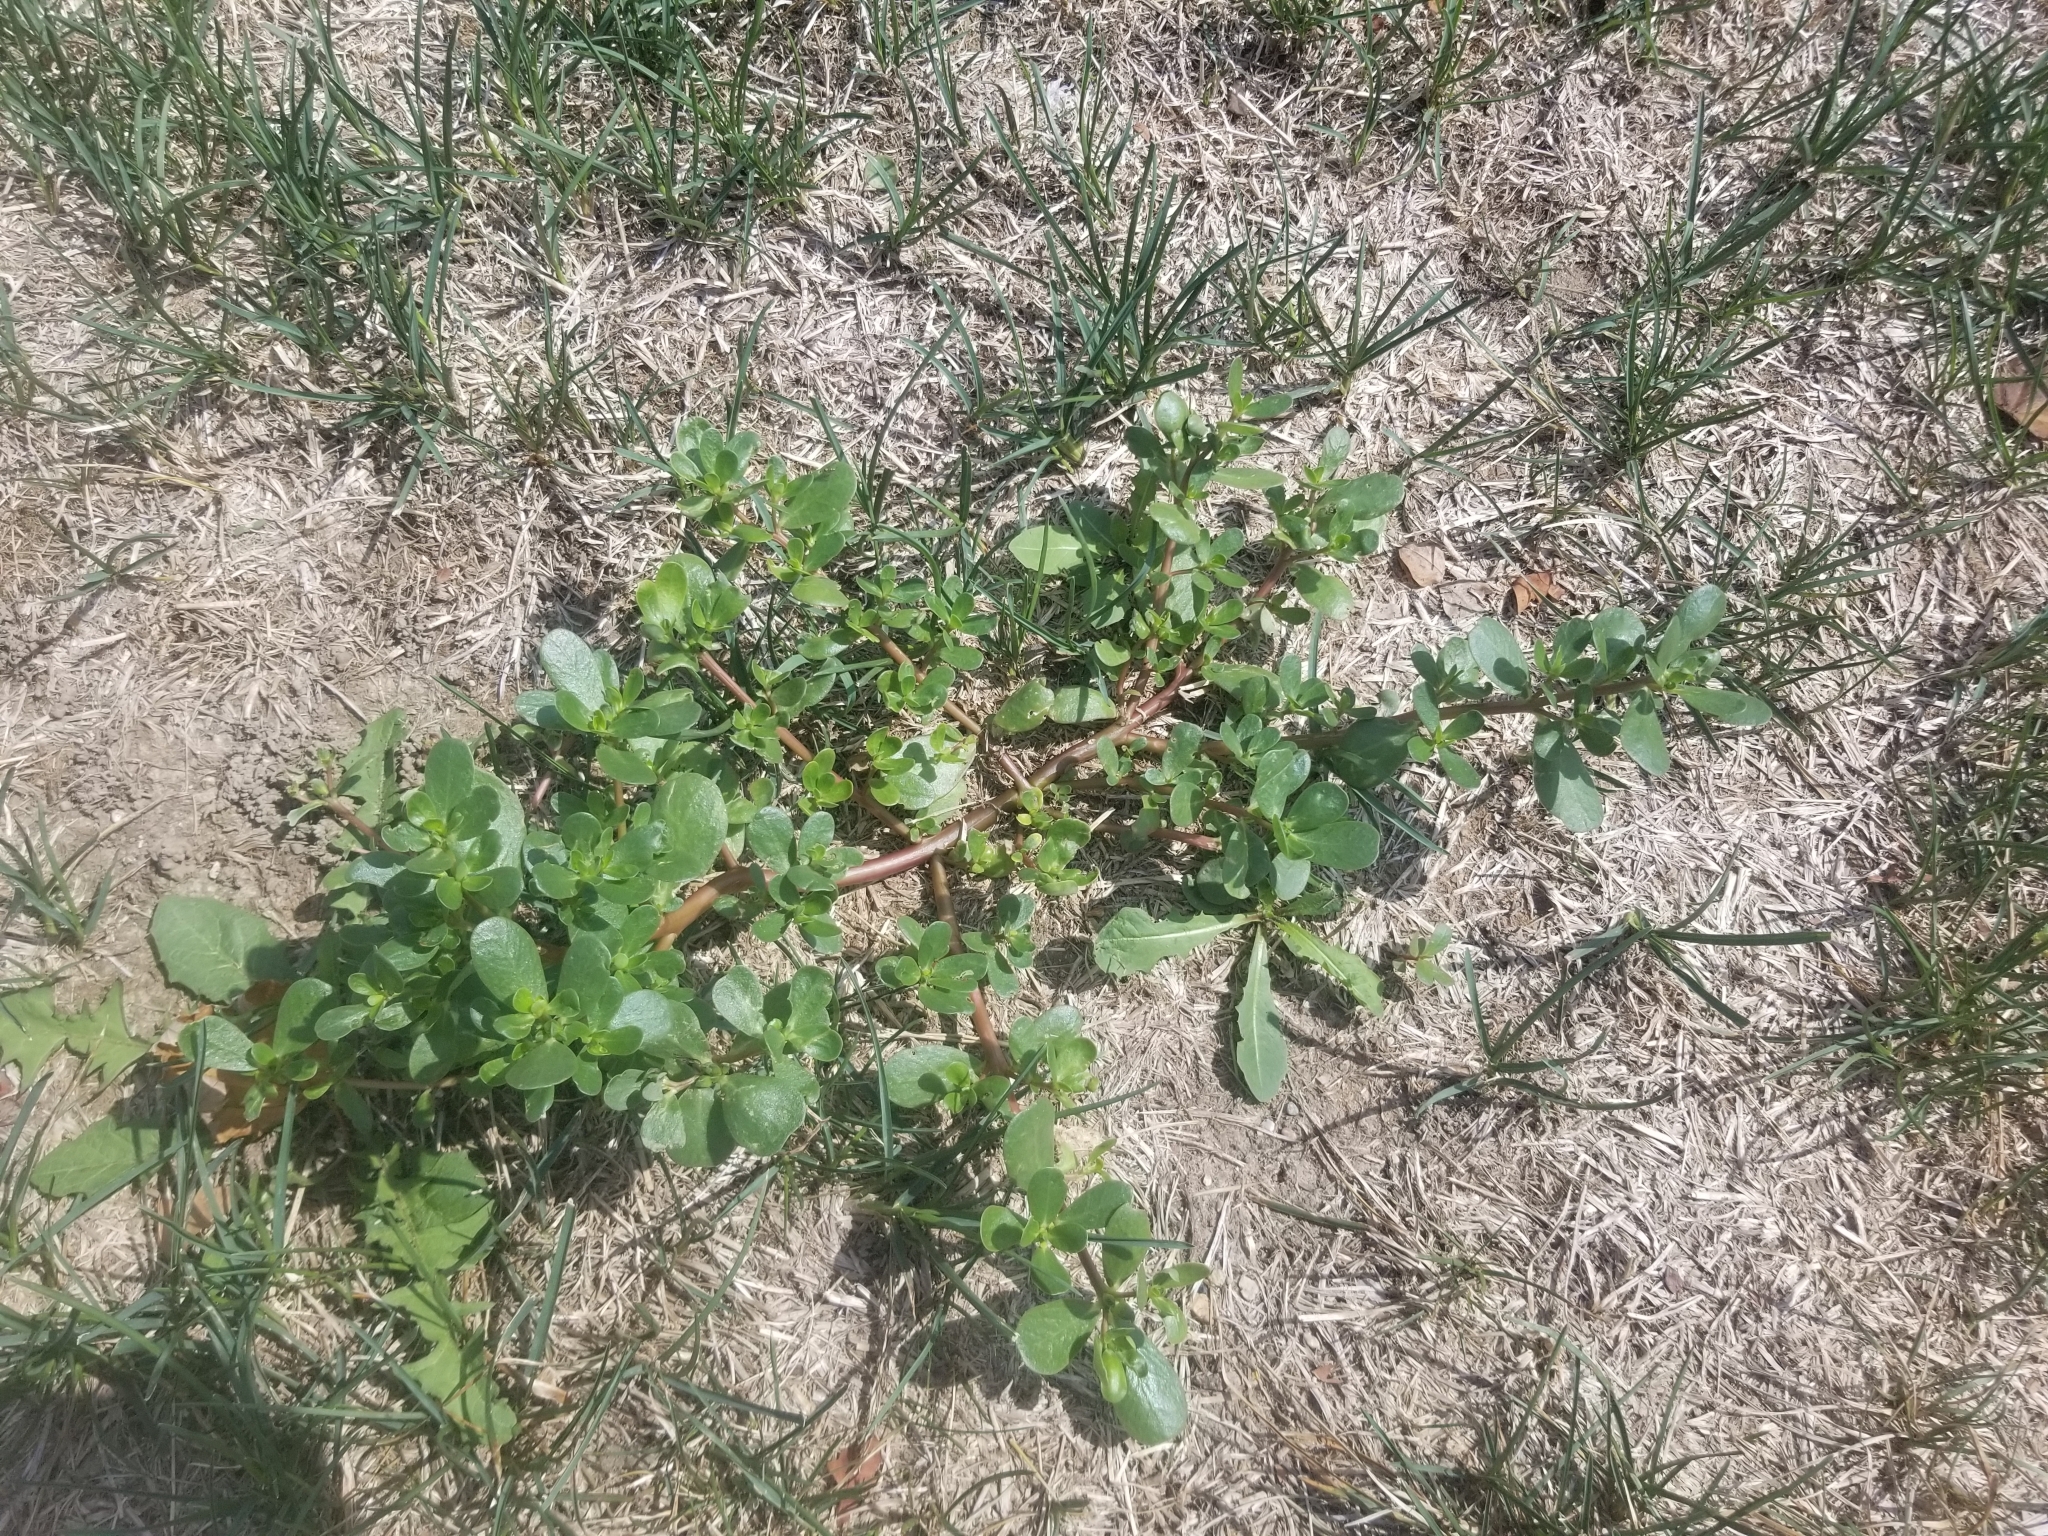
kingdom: Plantae
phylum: Tracheophyta
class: Magnoliopsida
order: Caryophyllales
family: Portulacaceae
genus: Portulaca
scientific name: Portulaca oleracea
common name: Common purslane
